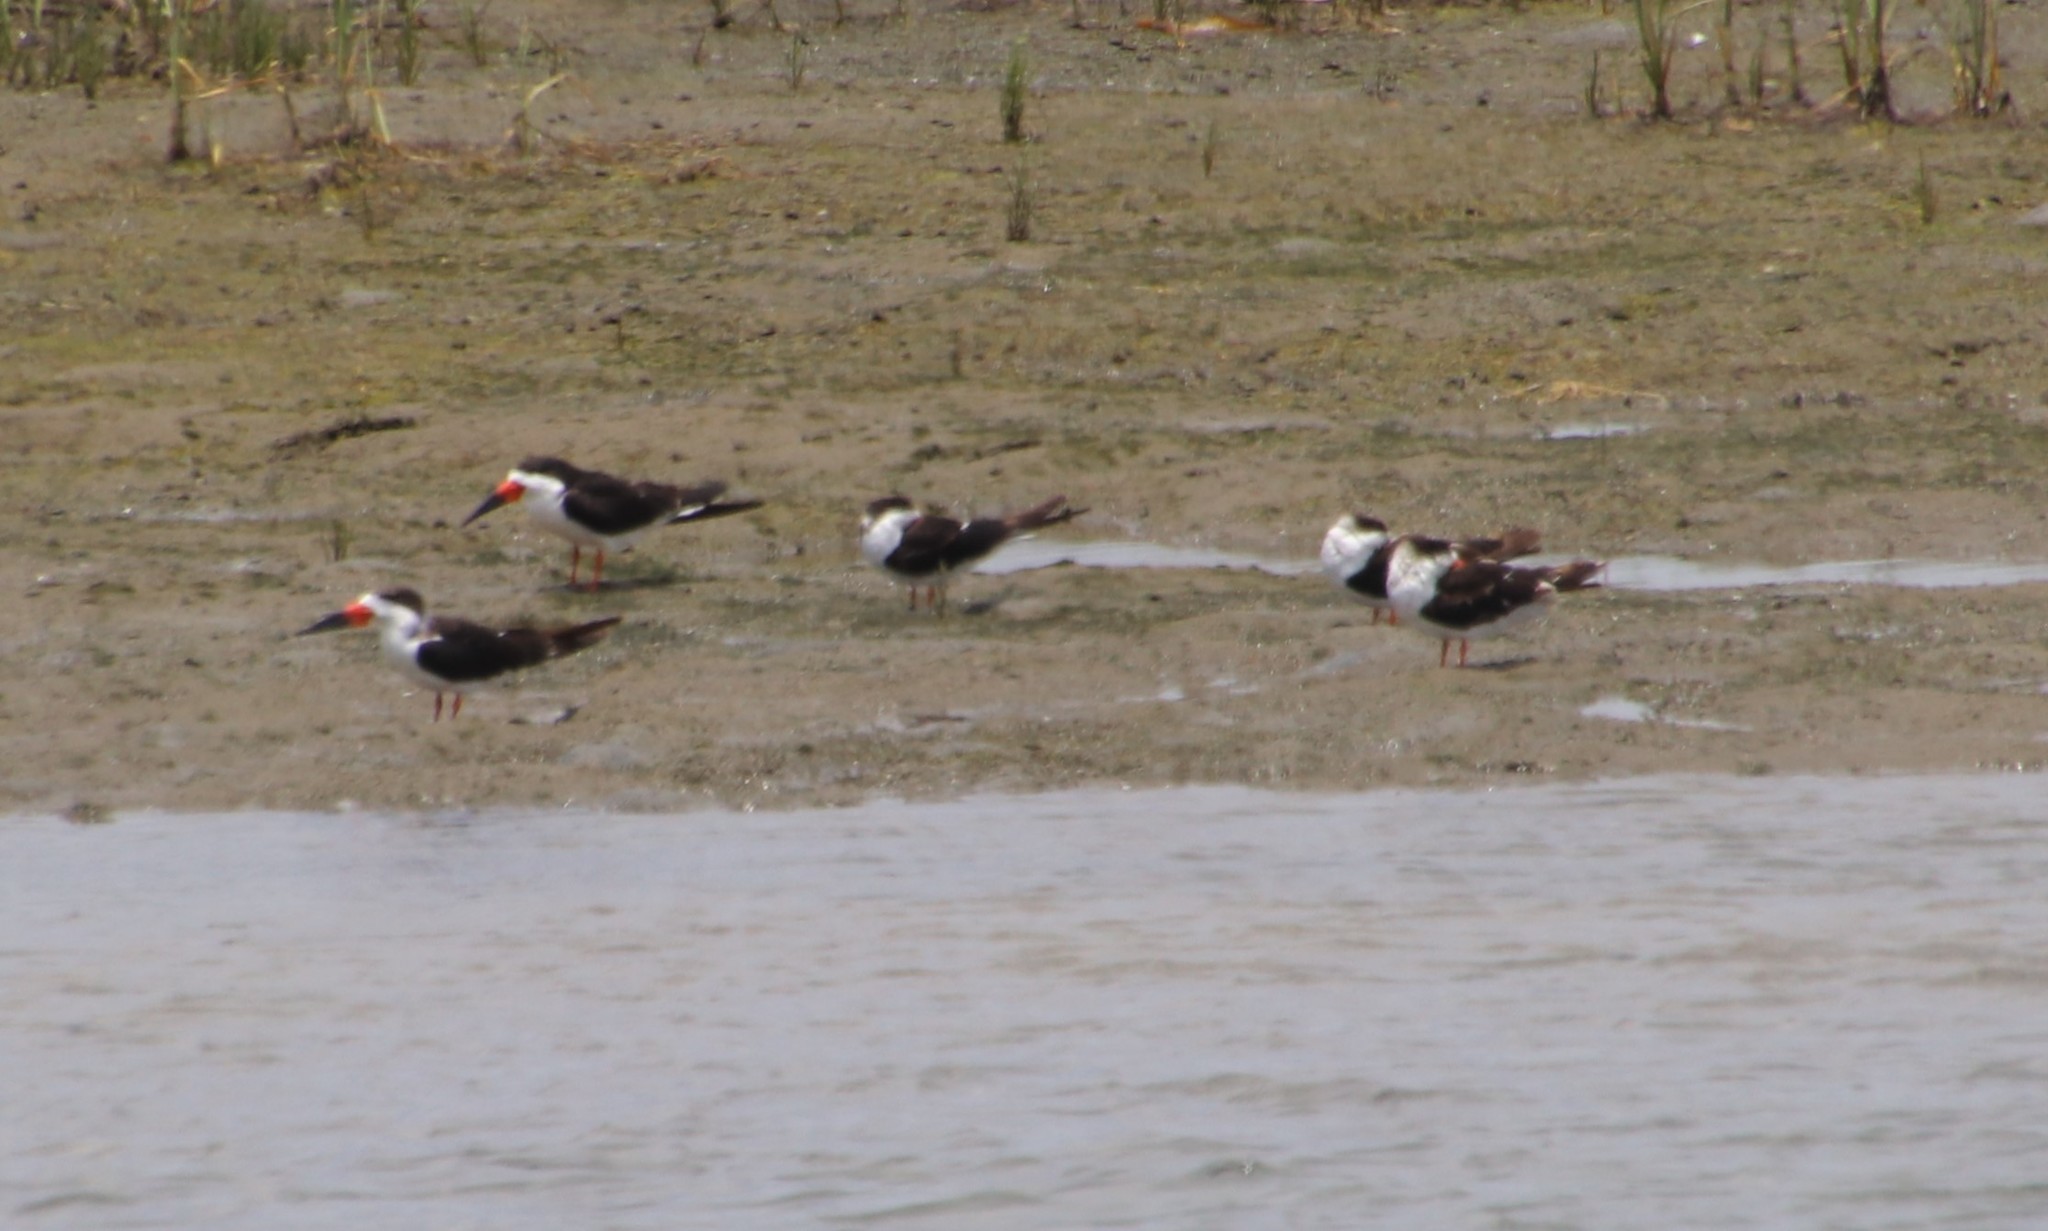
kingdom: Animalia
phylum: Chordata
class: Aves
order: Charadriiformes
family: Laridae
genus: Rynchops
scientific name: Rynchops niger
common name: Black skimmer
